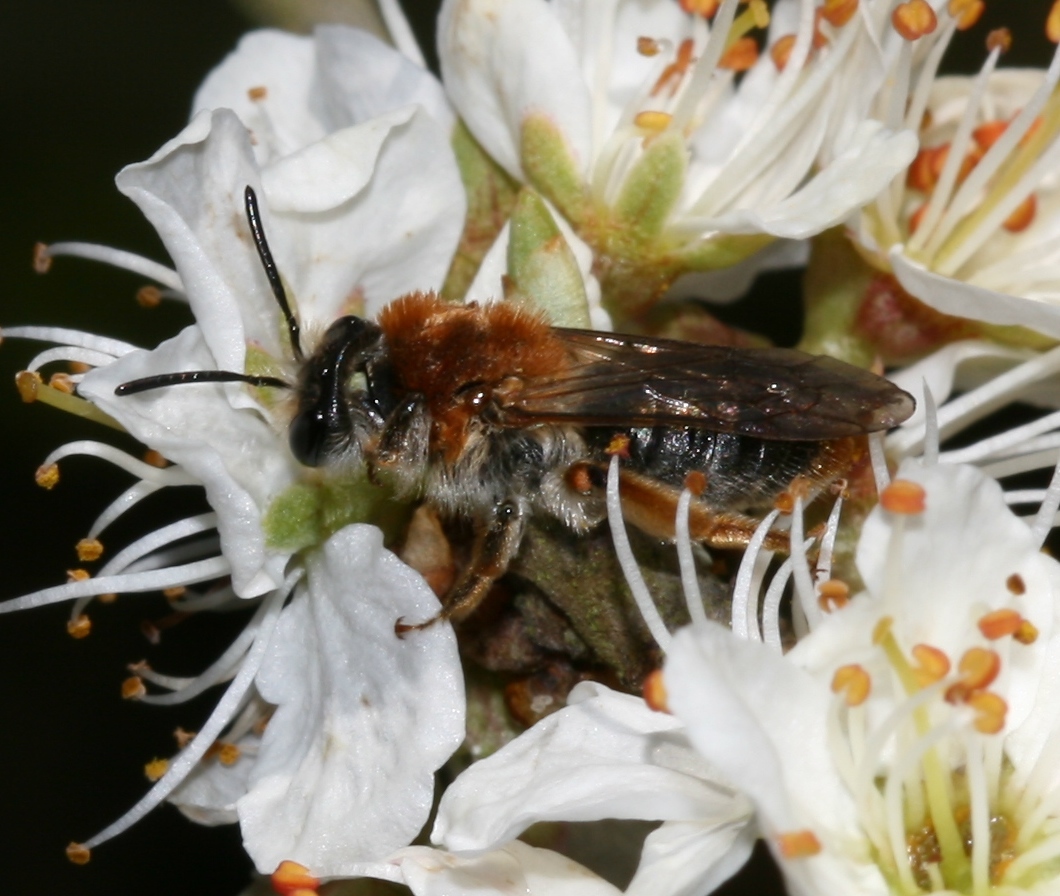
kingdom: Animalia
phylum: Arthropoda
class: Insecta
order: Hymenoptera
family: Andrenidae
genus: Andrena
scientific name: Andrena haemorrhoa
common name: Early mining bee
